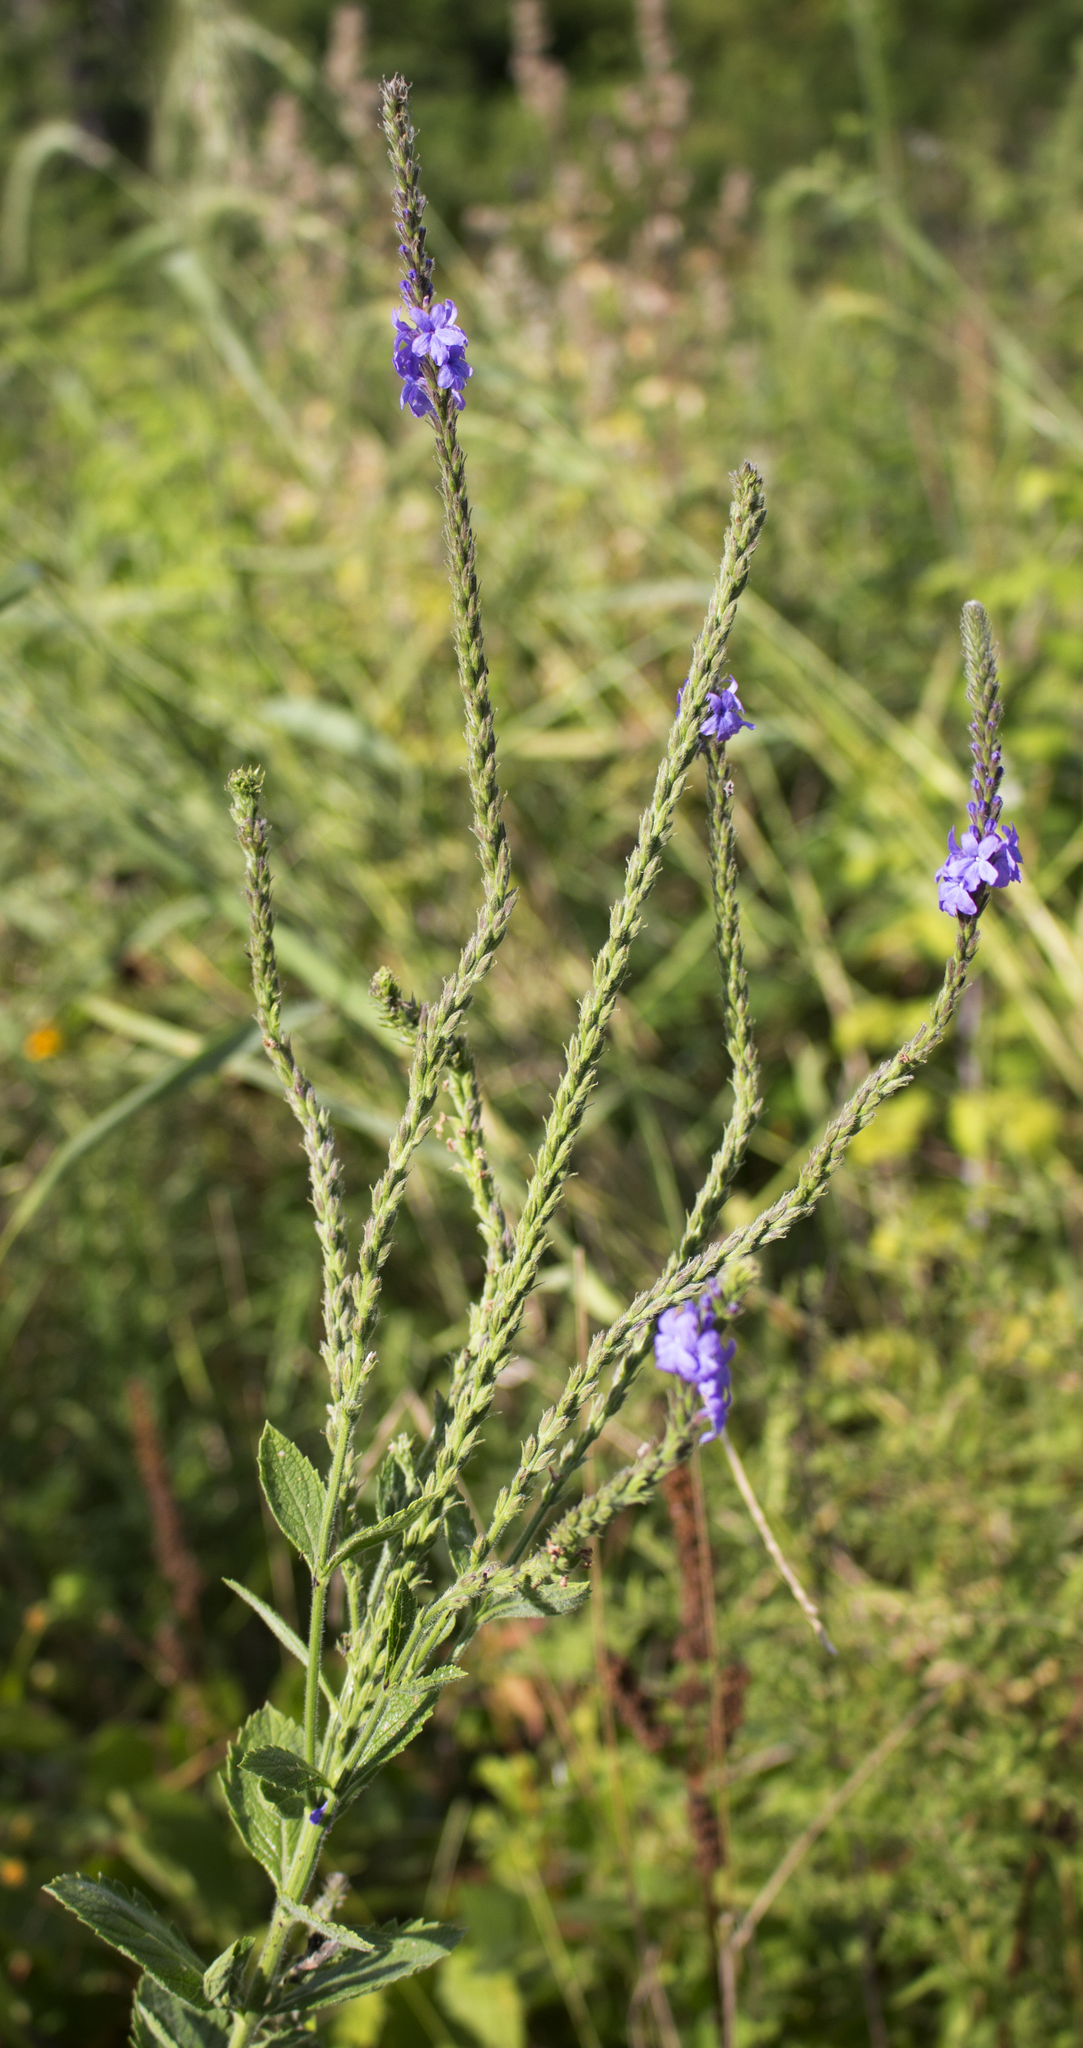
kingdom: Plantae
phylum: Tracheophyta
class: Magnoliopsida
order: Lamiales
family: Verbenaceae
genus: Verbena
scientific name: Verbena stricta
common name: Hoary vervain
